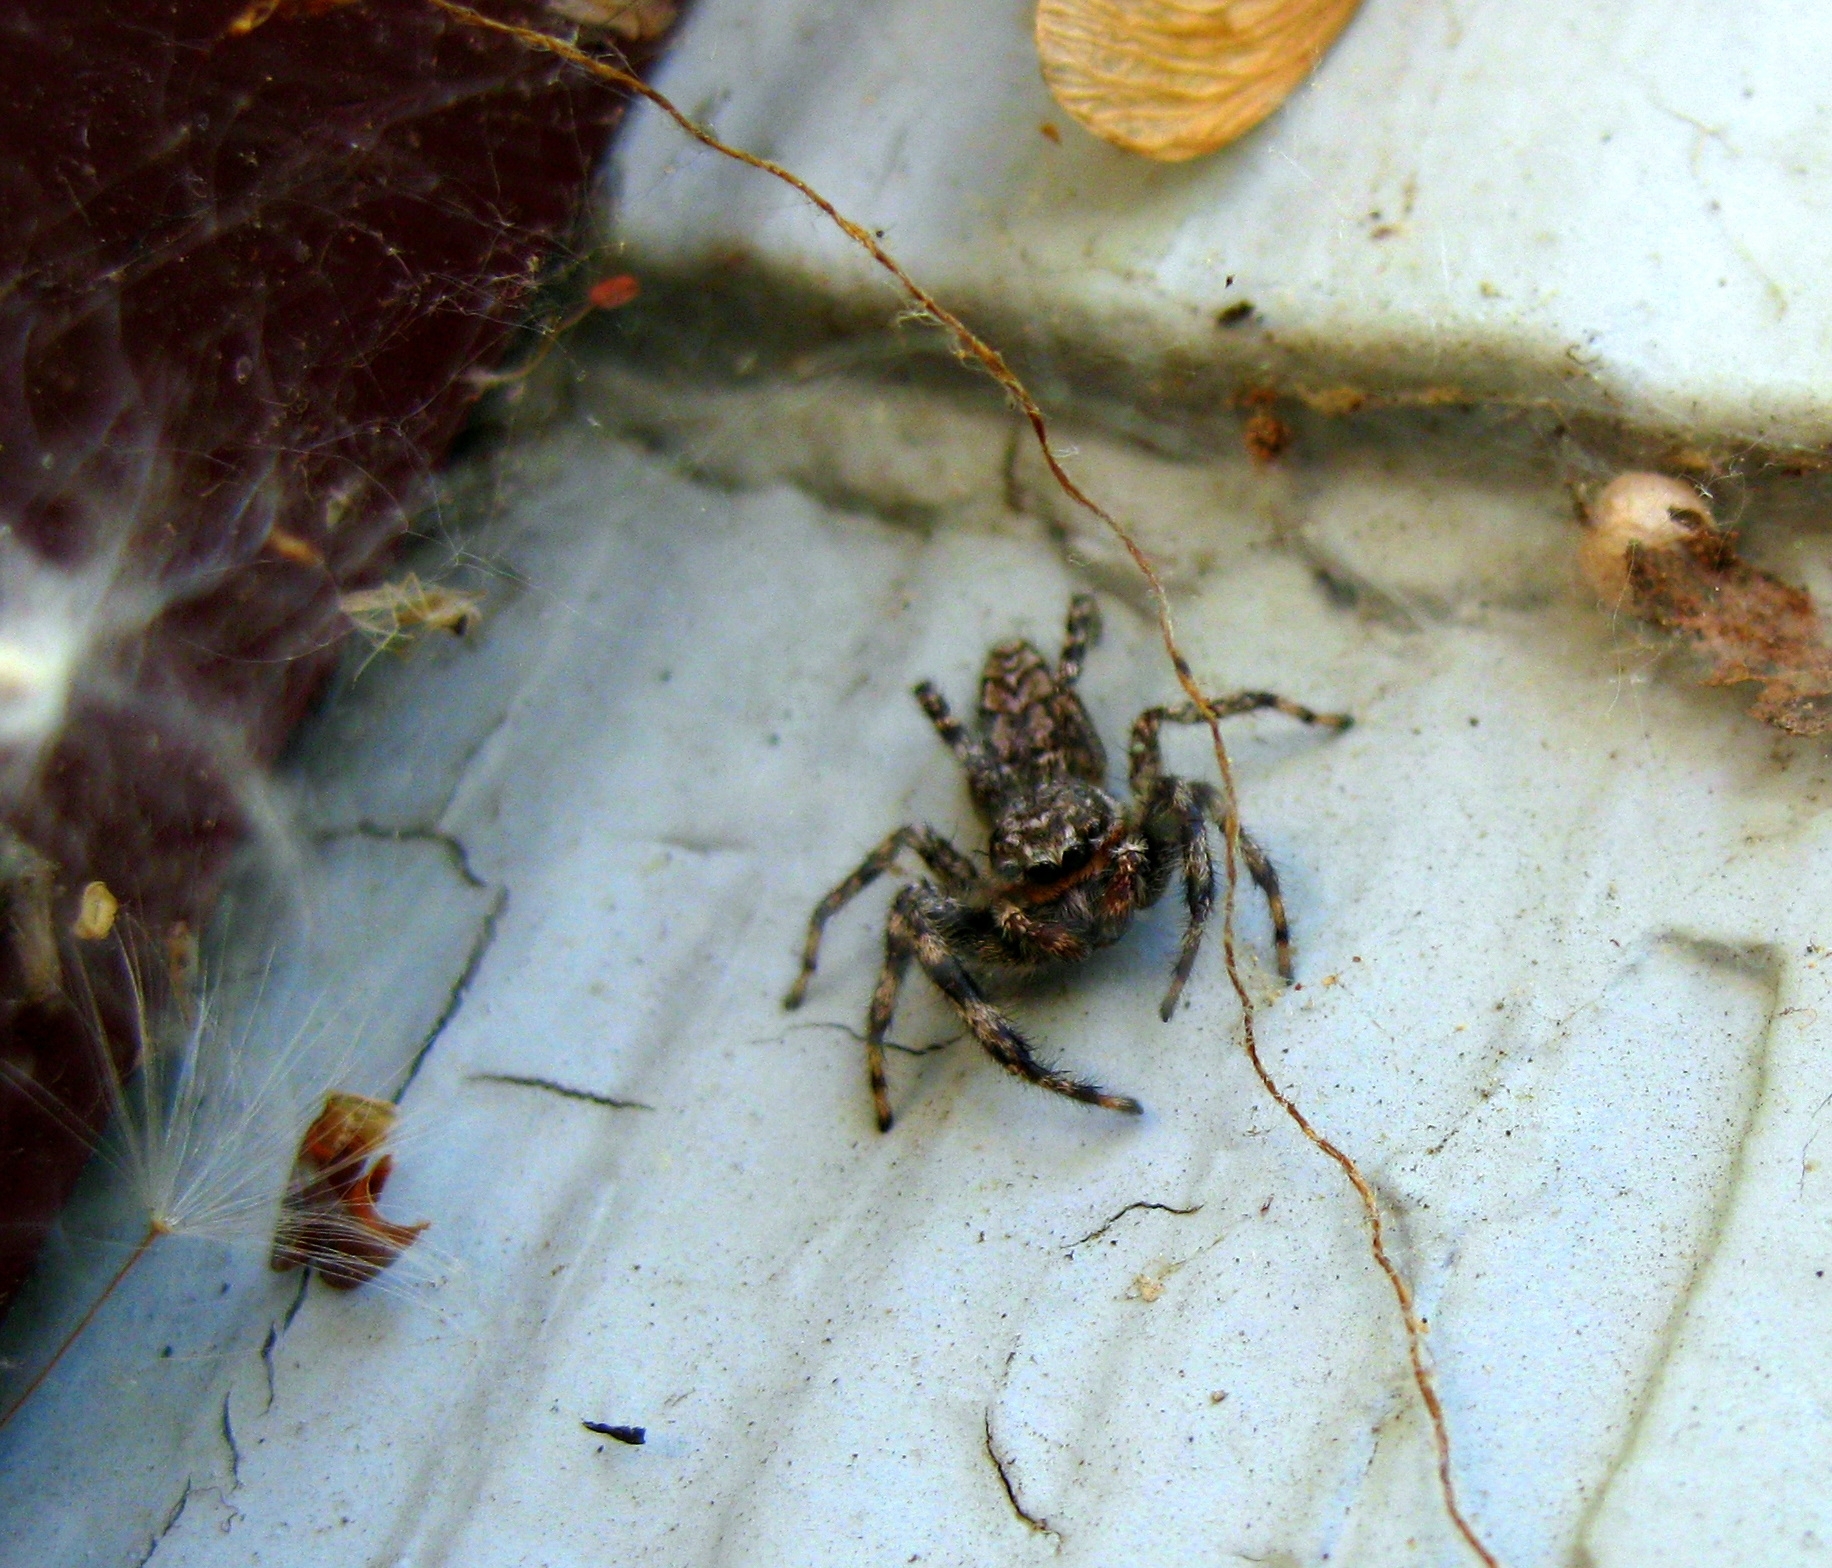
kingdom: Animalia
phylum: Arthropoda
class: Arachnida
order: Araneae
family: Salticidae
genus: Platycryptus
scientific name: Platycryptus undatus
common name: Tan jumping spider
